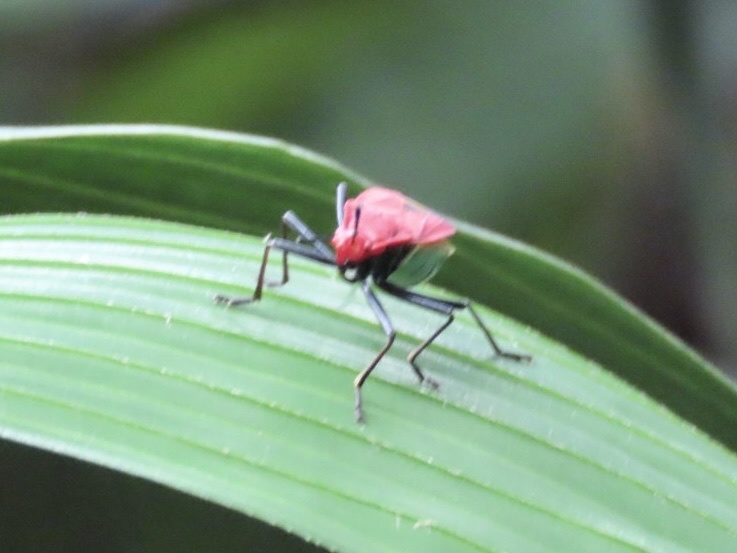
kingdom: Animalia
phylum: Arthropoda
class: Insecta
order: Hemiptera
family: Pyrrhocoridae
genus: Dindymus
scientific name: Dindymus
